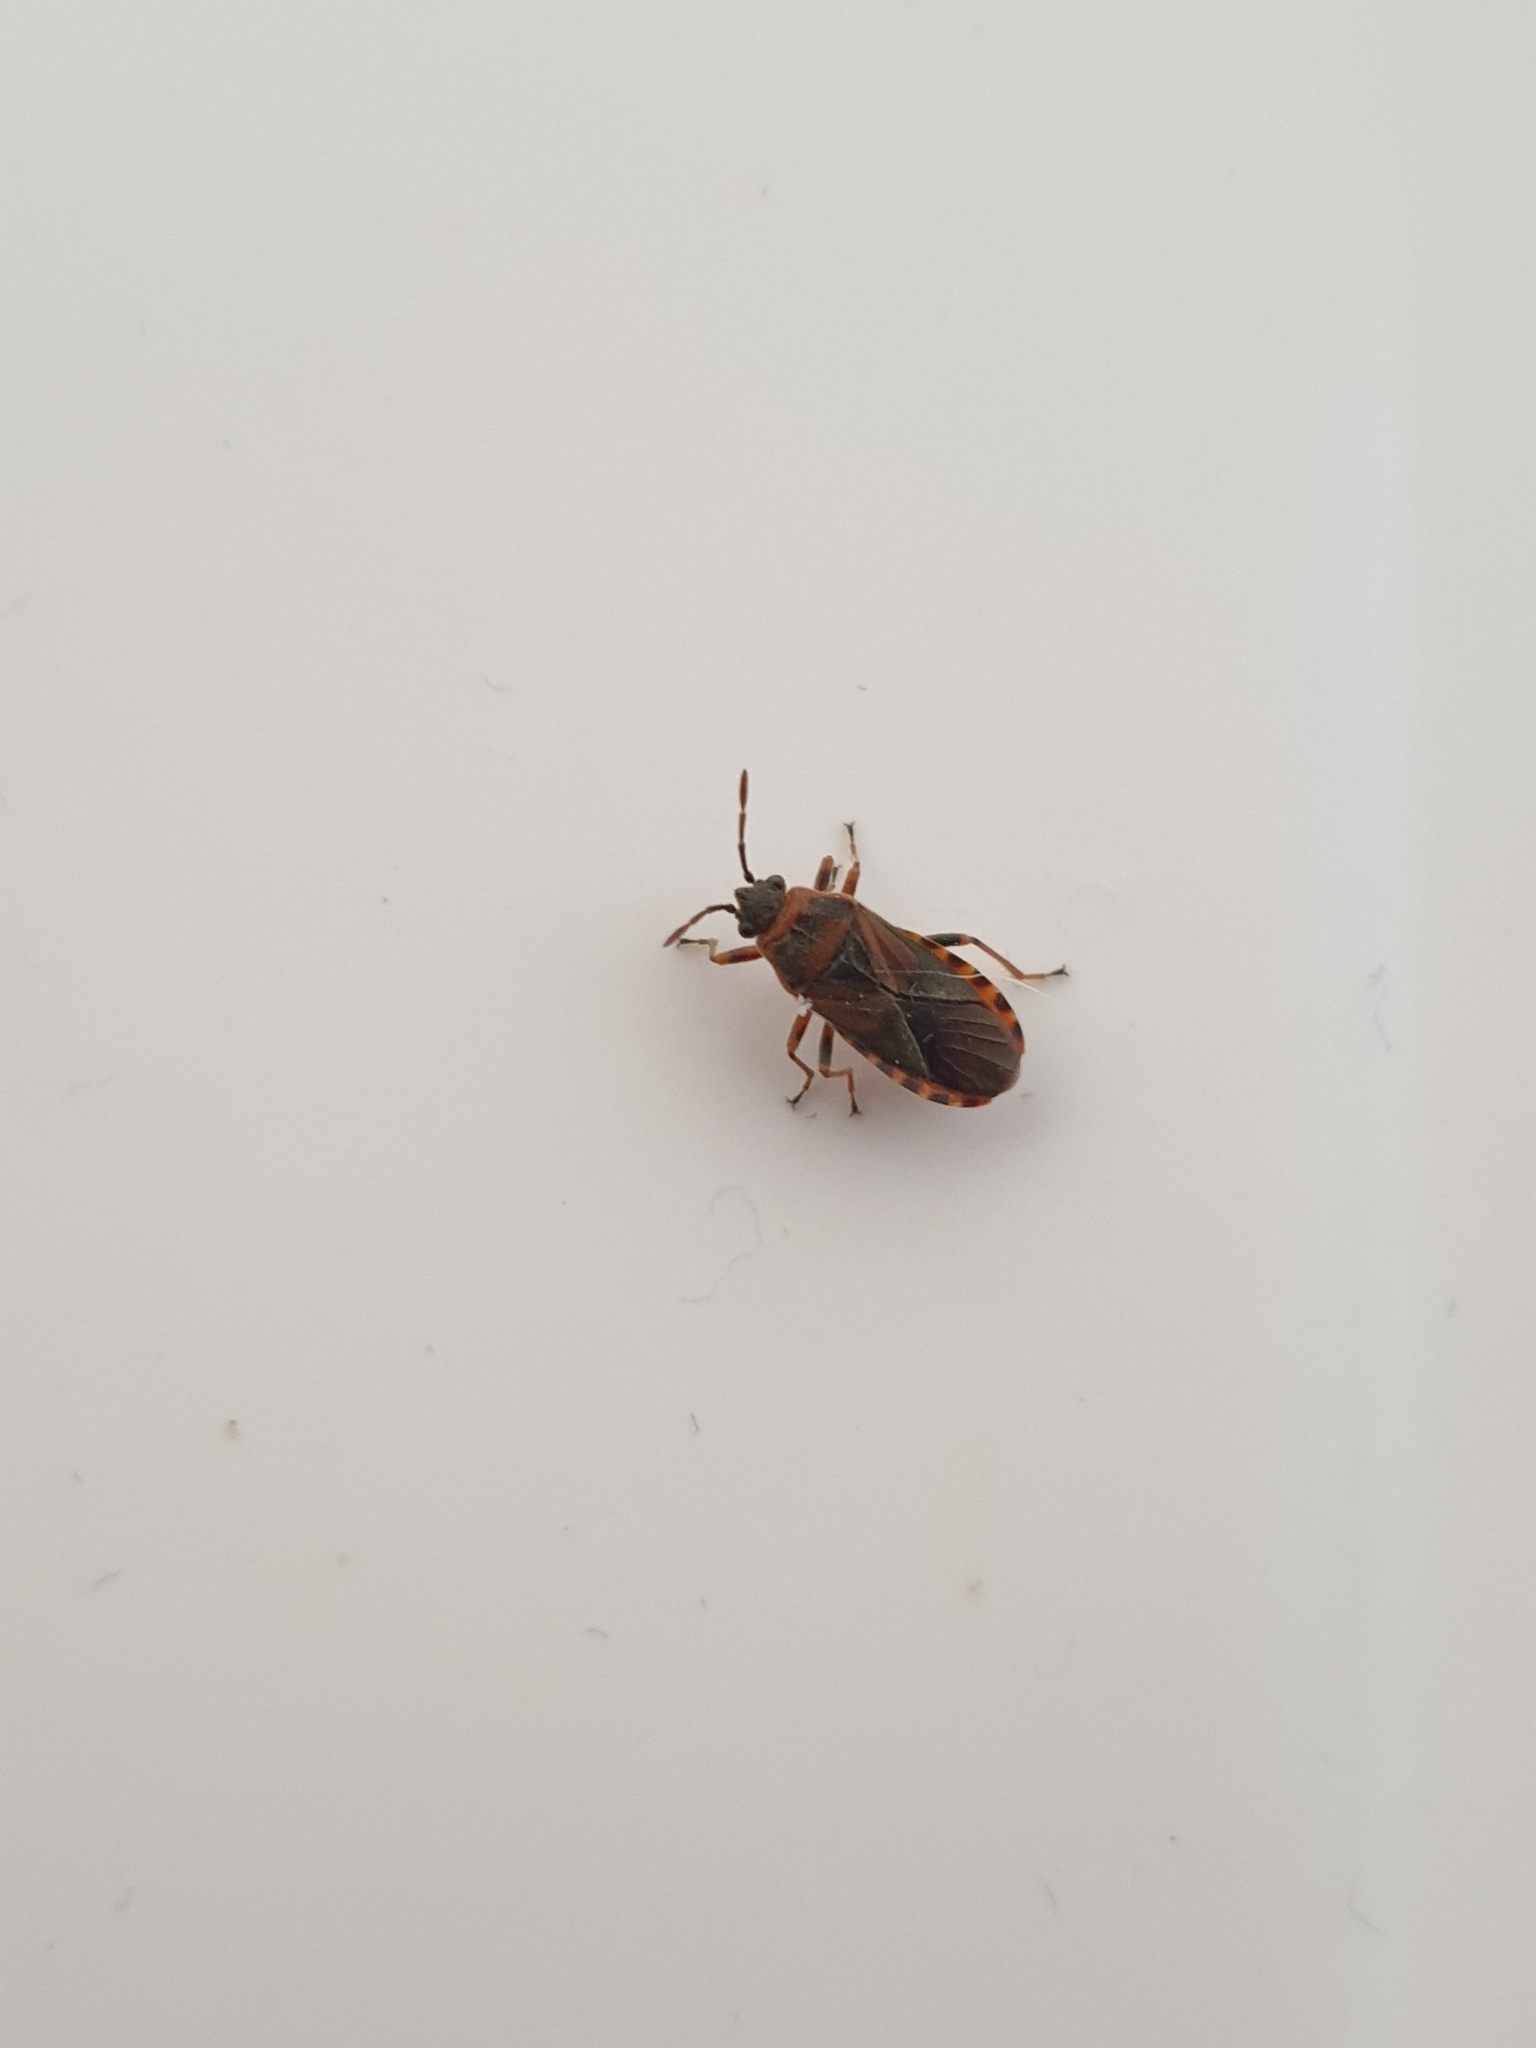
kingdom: Animalia
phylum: Arthropoda
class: Insecta
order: Hemiptera
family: Lygaeidae
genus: Arocatus
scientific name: Arocatus melanocephalus
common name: Lygaeid bug
